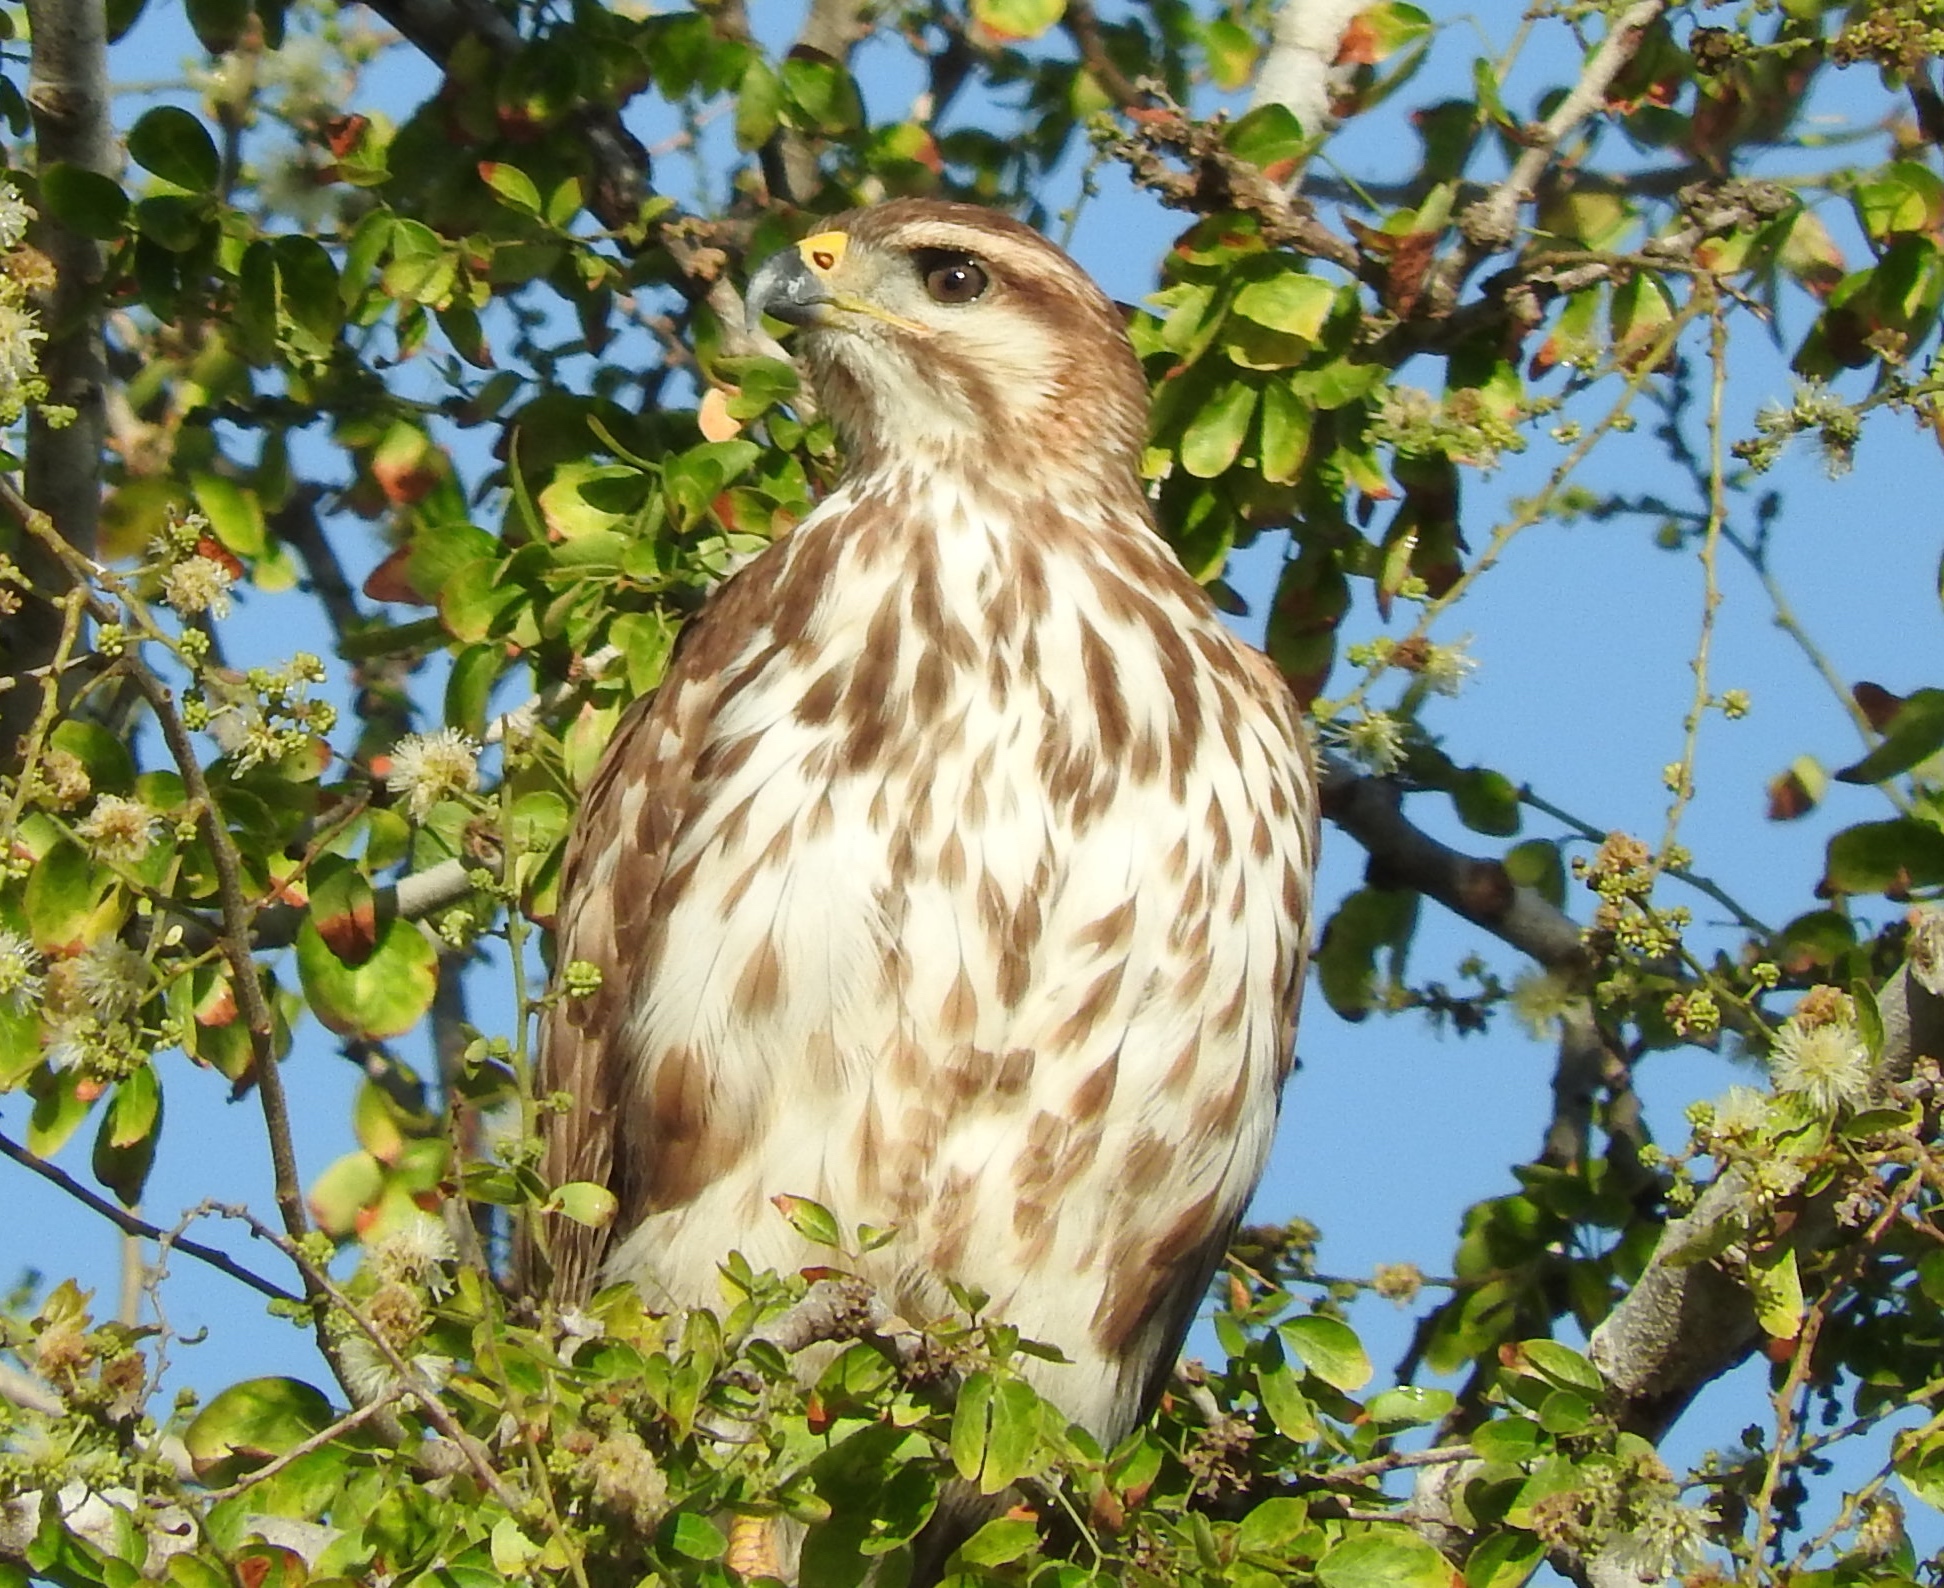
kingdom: Animalia
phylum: Chordata
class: Aves
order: Accipitriformes
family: Accipitridae
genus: Buteo
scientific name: Buteo nitidus
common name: Grey-lined hawk
